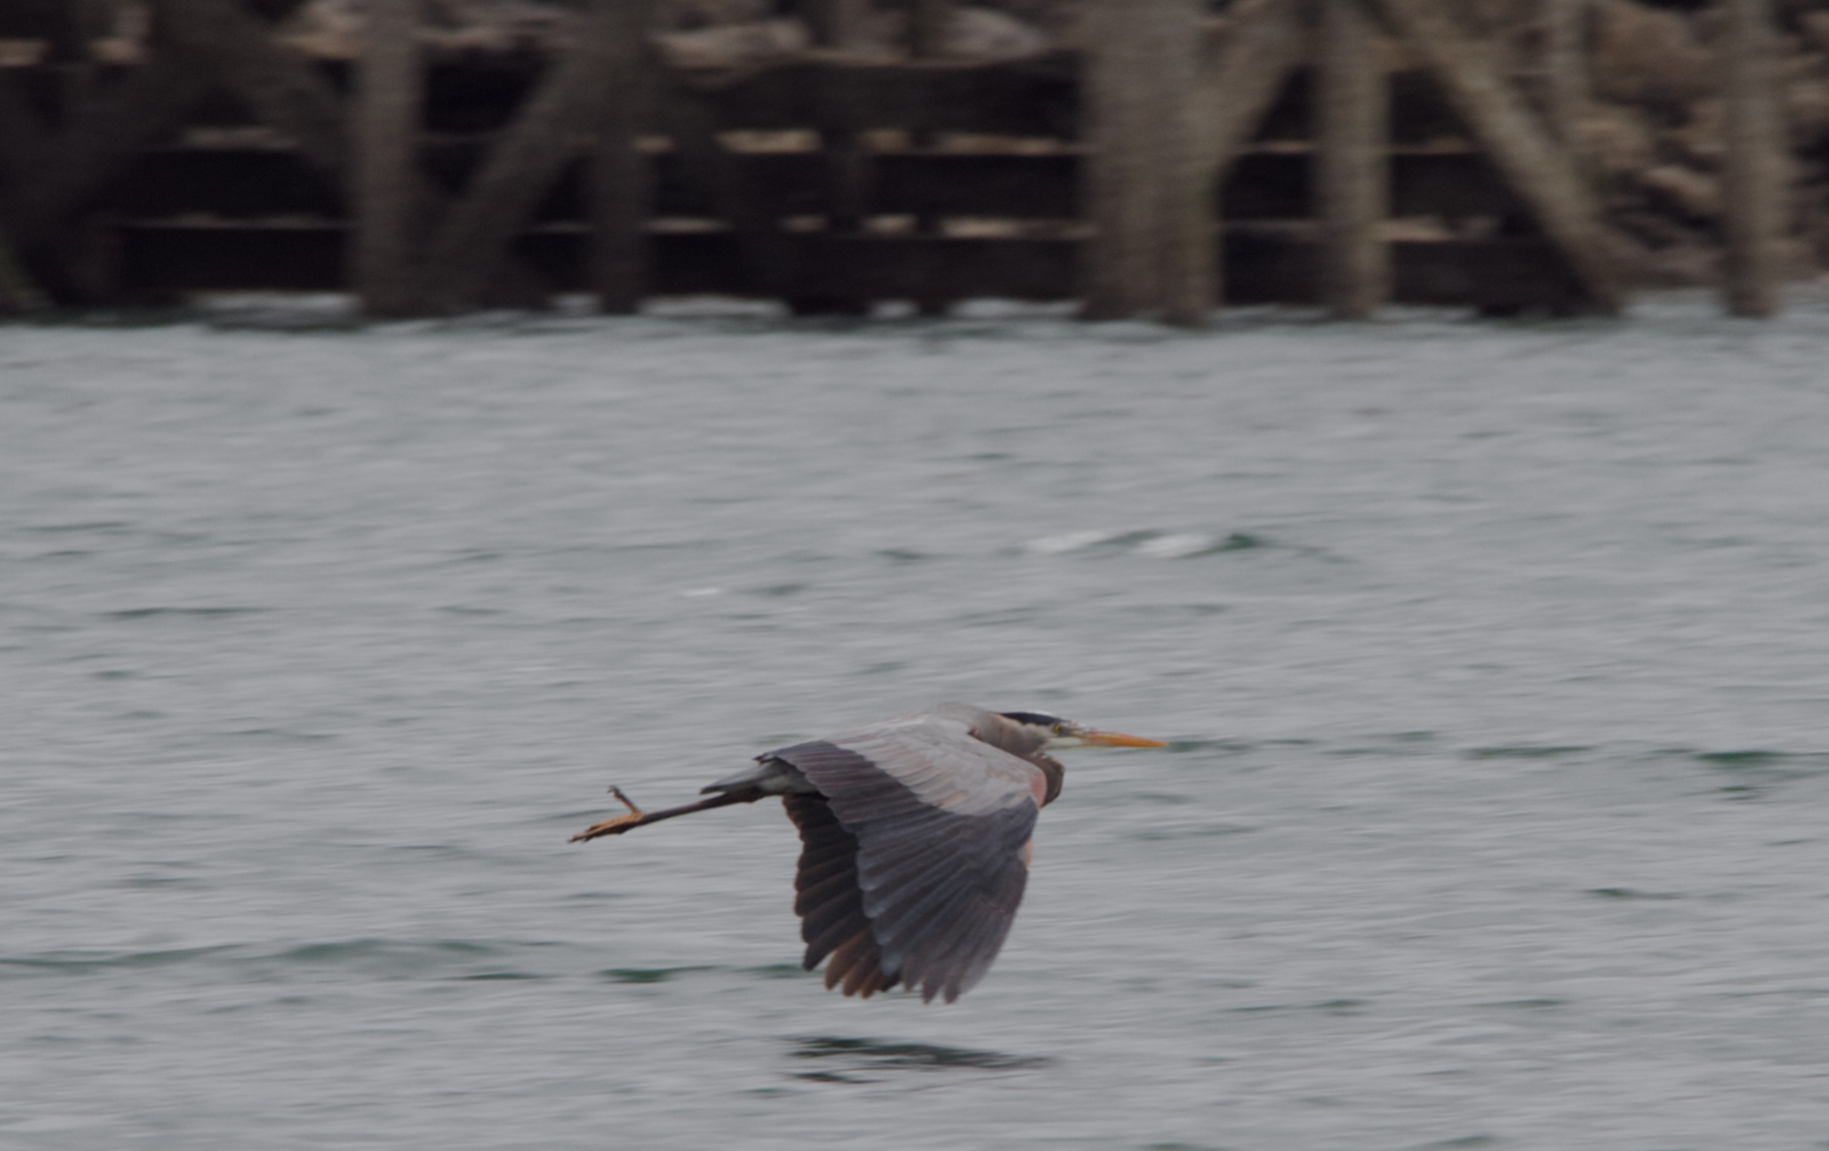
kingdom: Animalia
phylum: Chordata
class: Aves
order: Pelecaniformes
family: Ardeidae
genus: Ardea
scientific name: Ardea herodias
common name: Great blue heron
